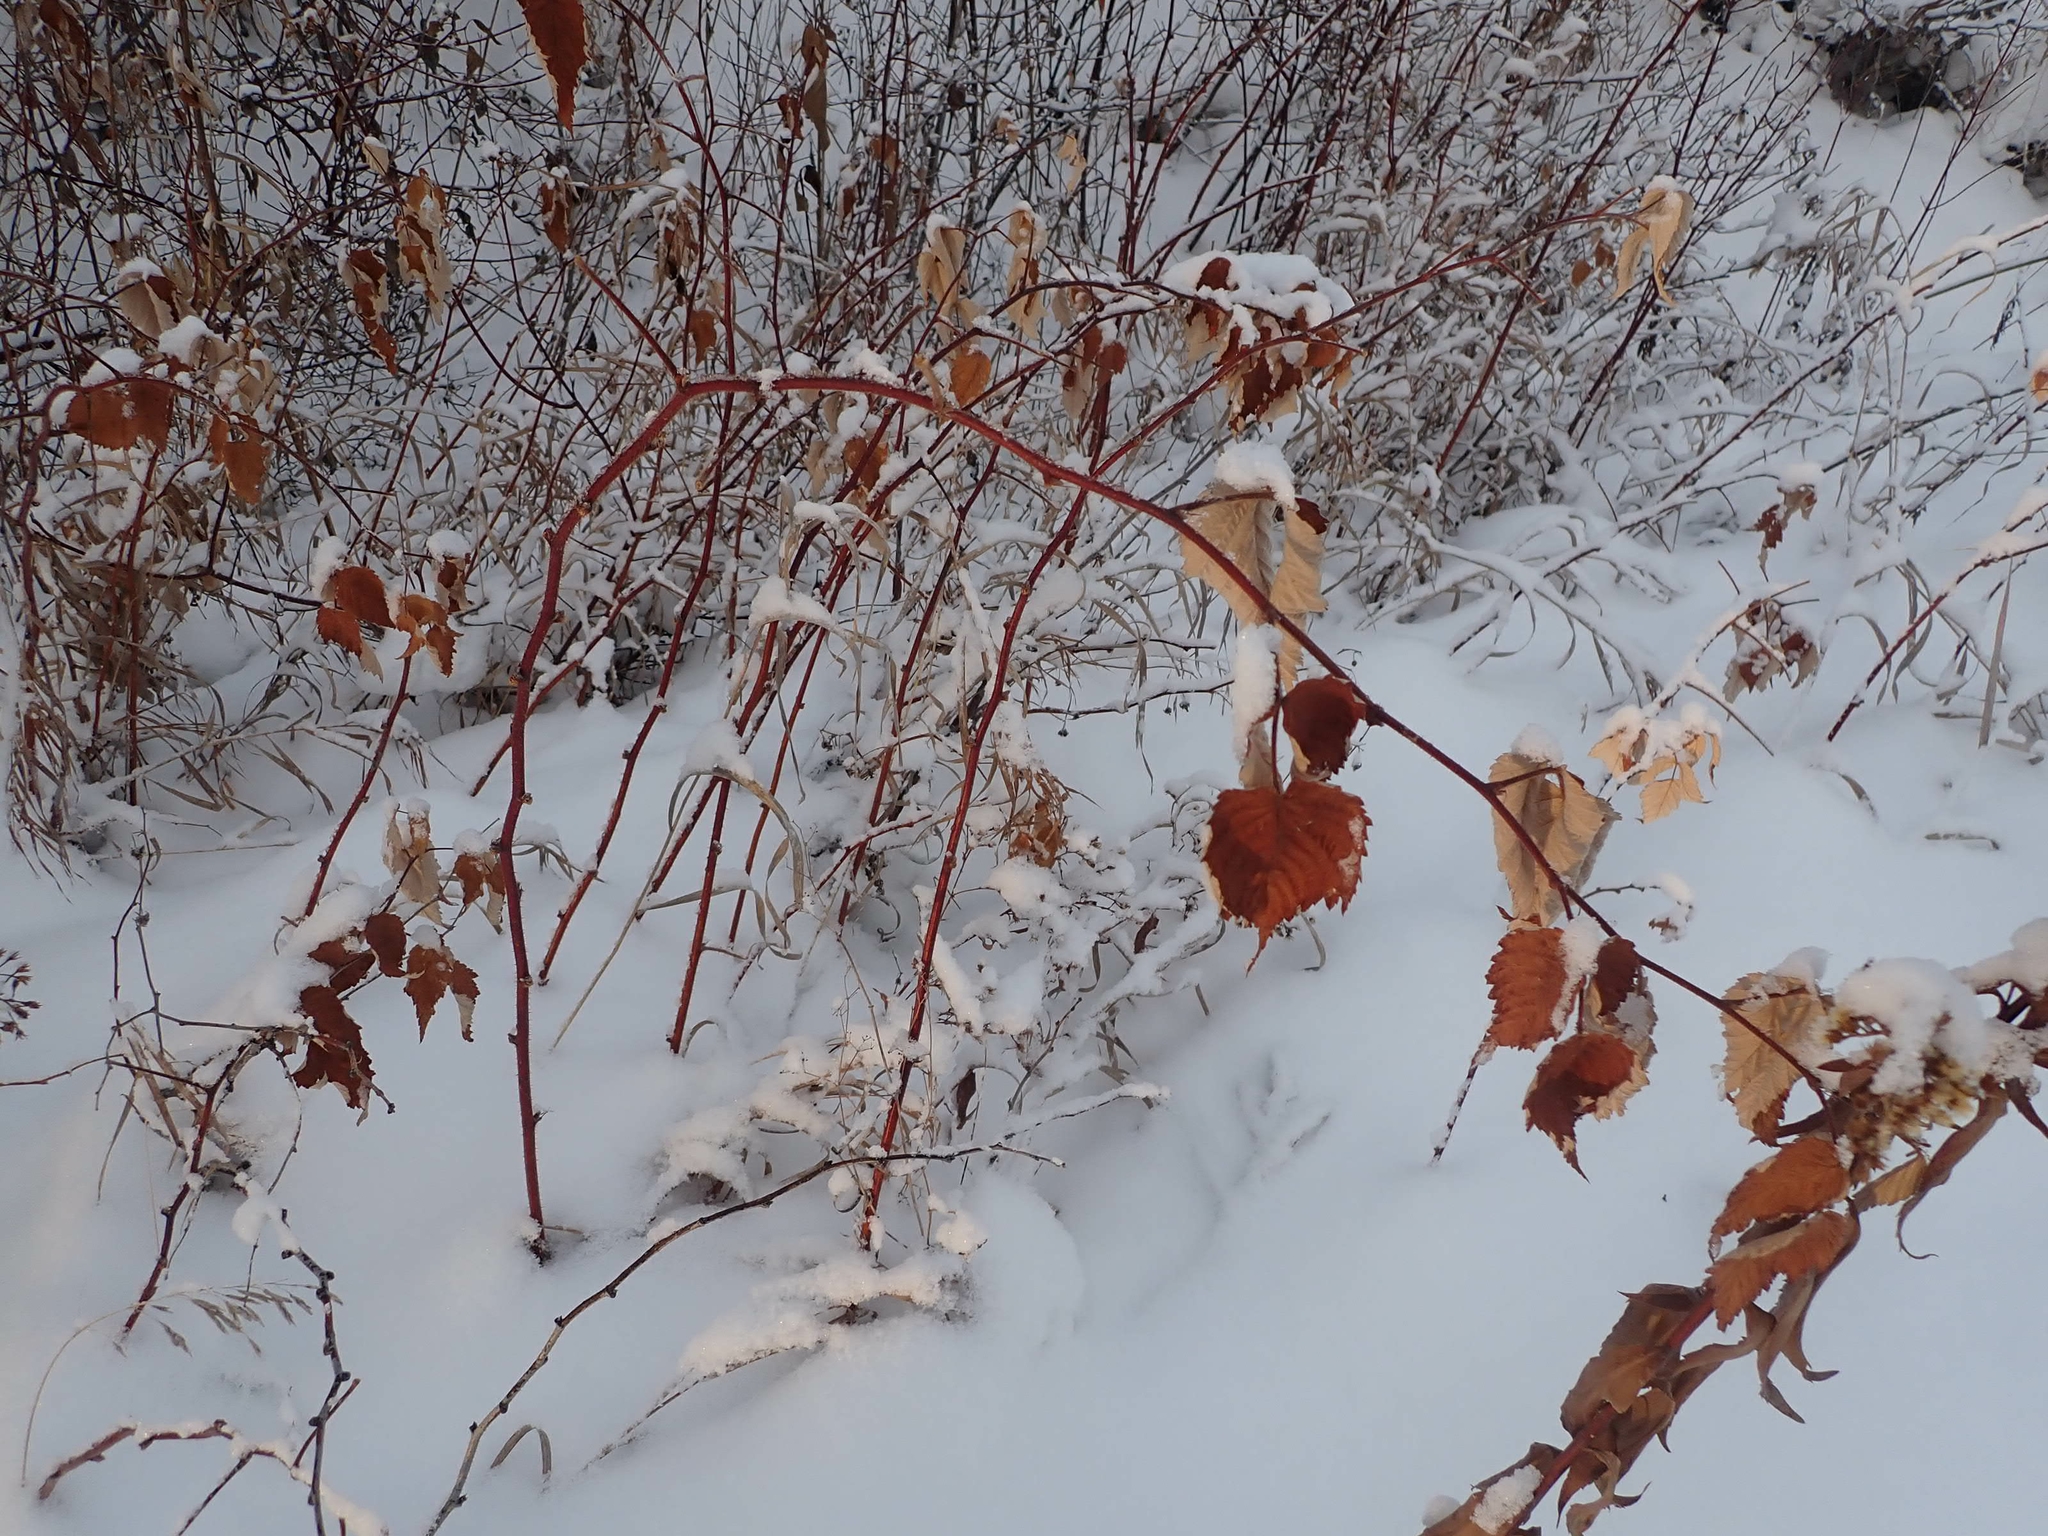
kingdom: Plantae
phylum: Tracheophyta
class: Magnoliopsida
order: Rosales
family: Rosaceae
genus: Rubus
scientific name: Rubus idaeus
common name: Raspberry
